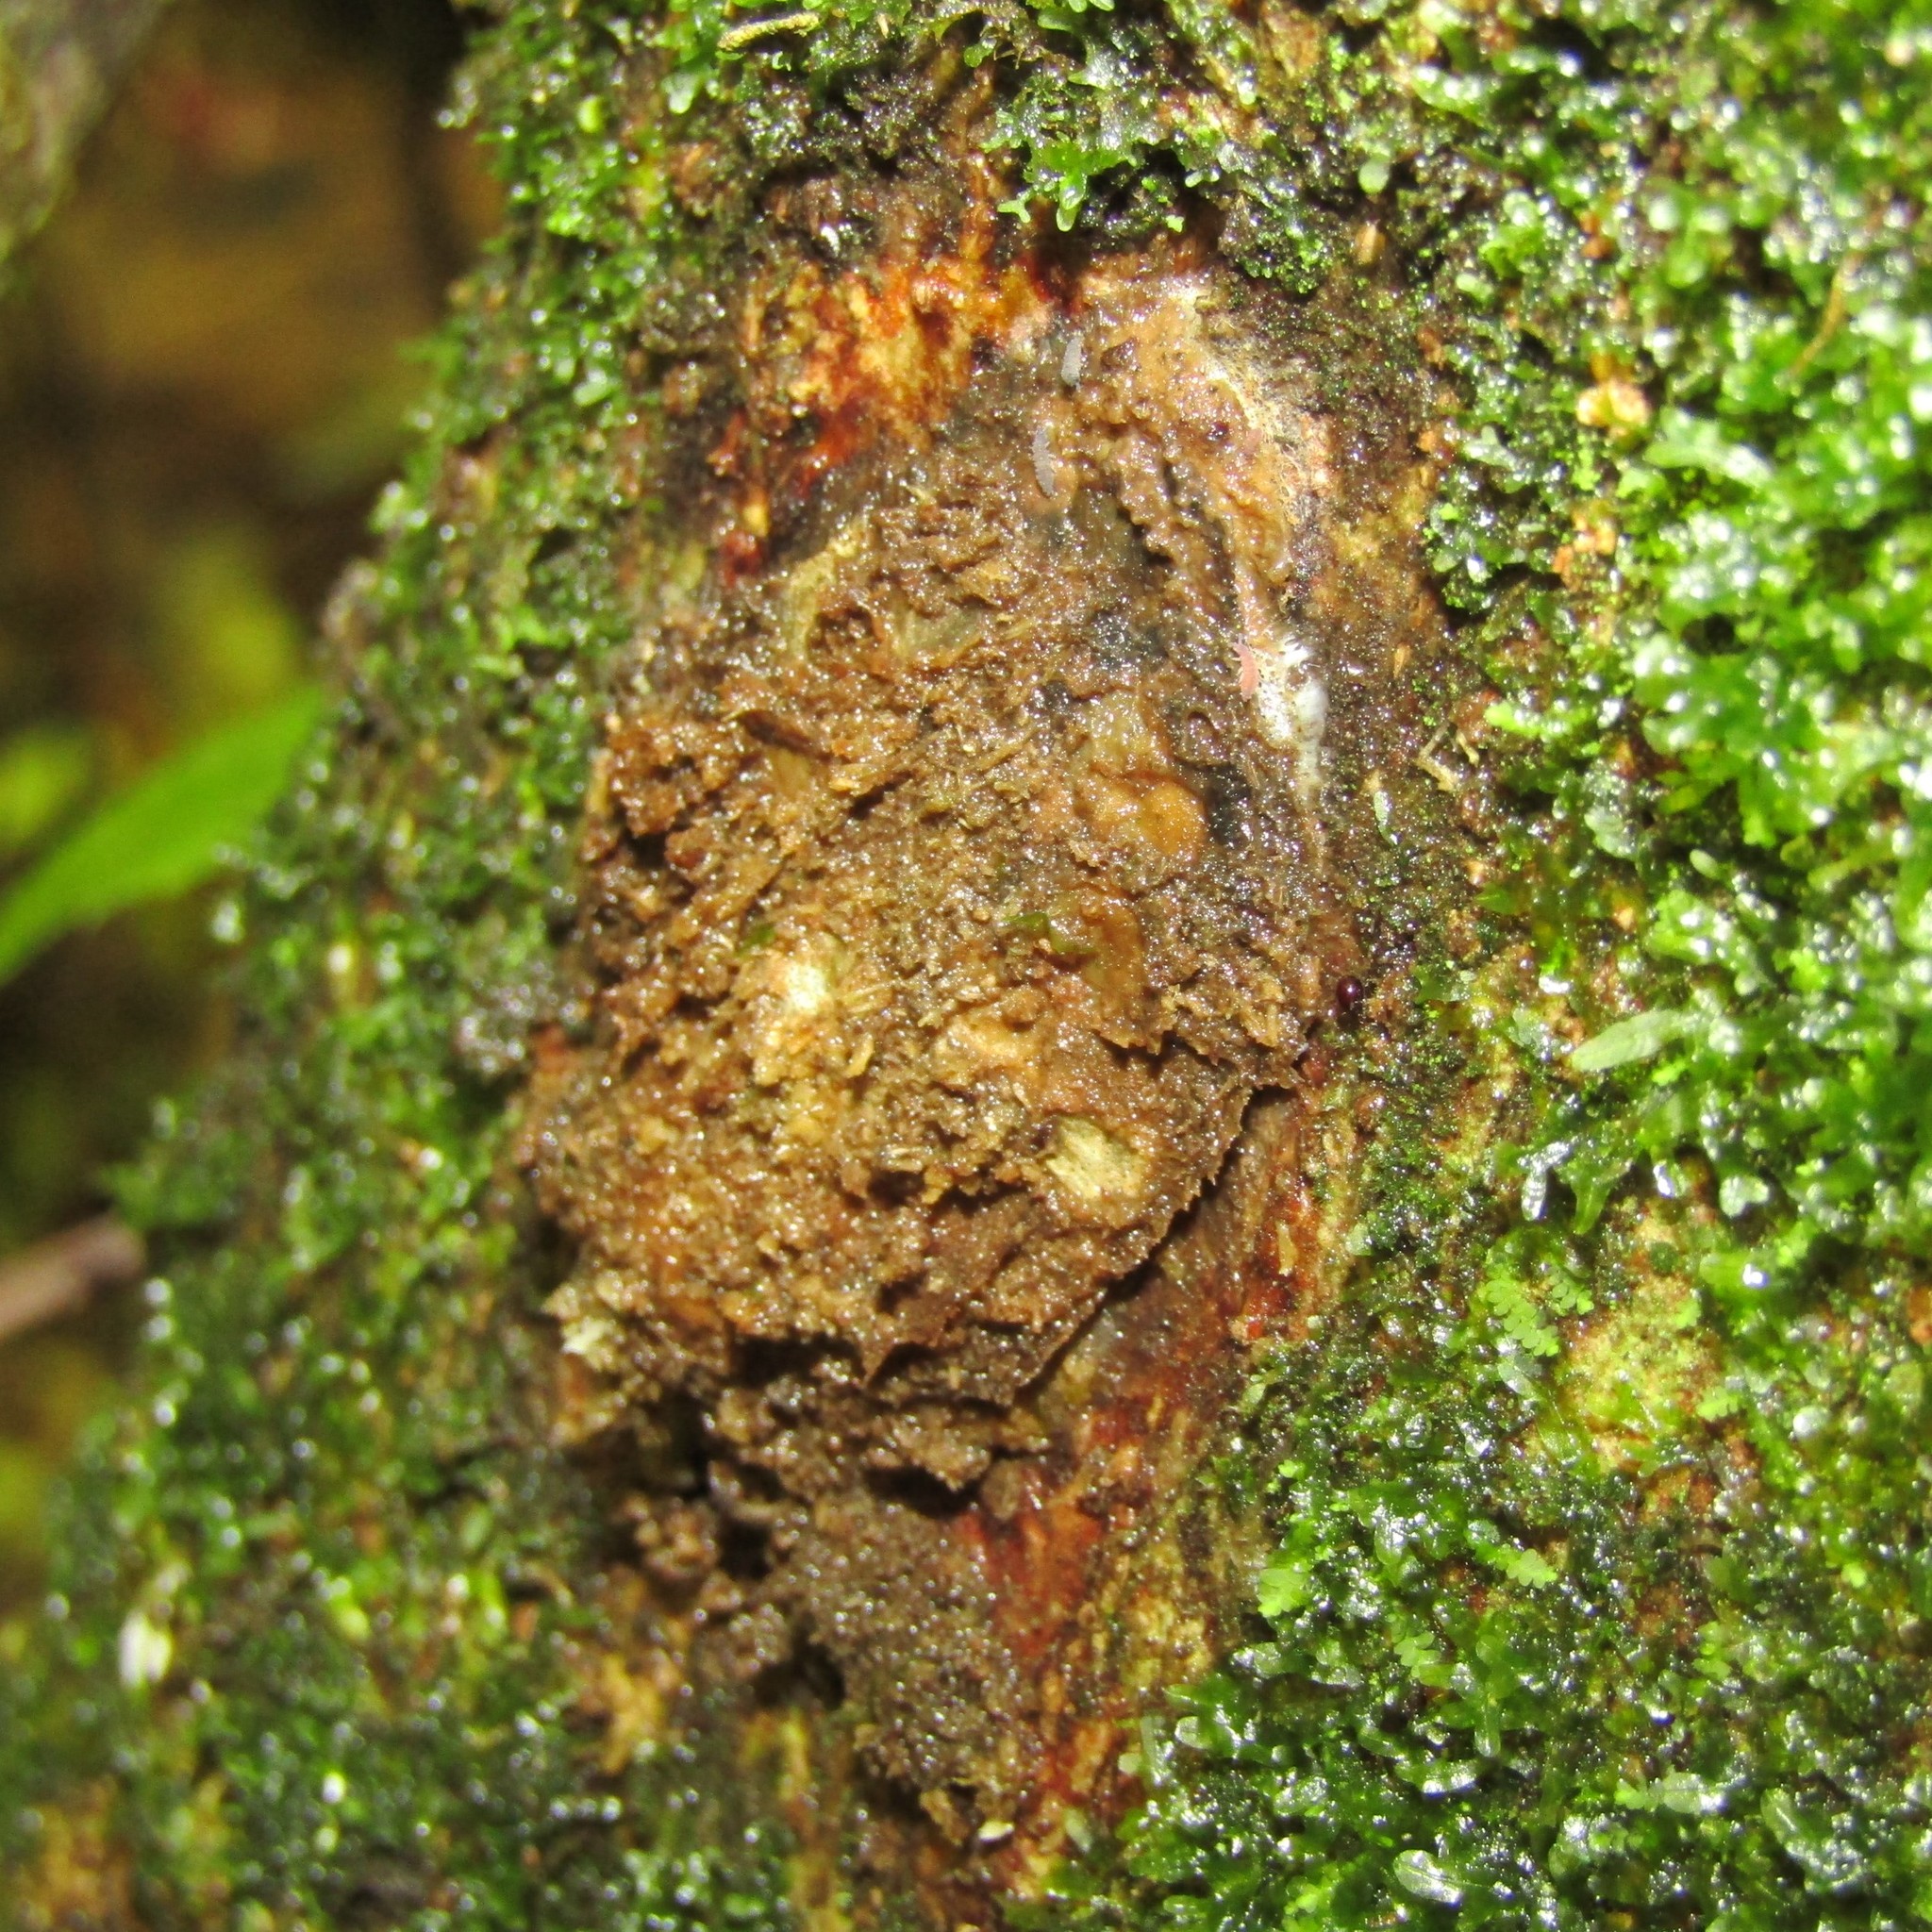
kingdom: Animalia
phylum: Arthropoda
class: Insecta
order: Lepidoptera
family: Hepialidae
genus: Aenetus
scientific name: Aenetus virescens
